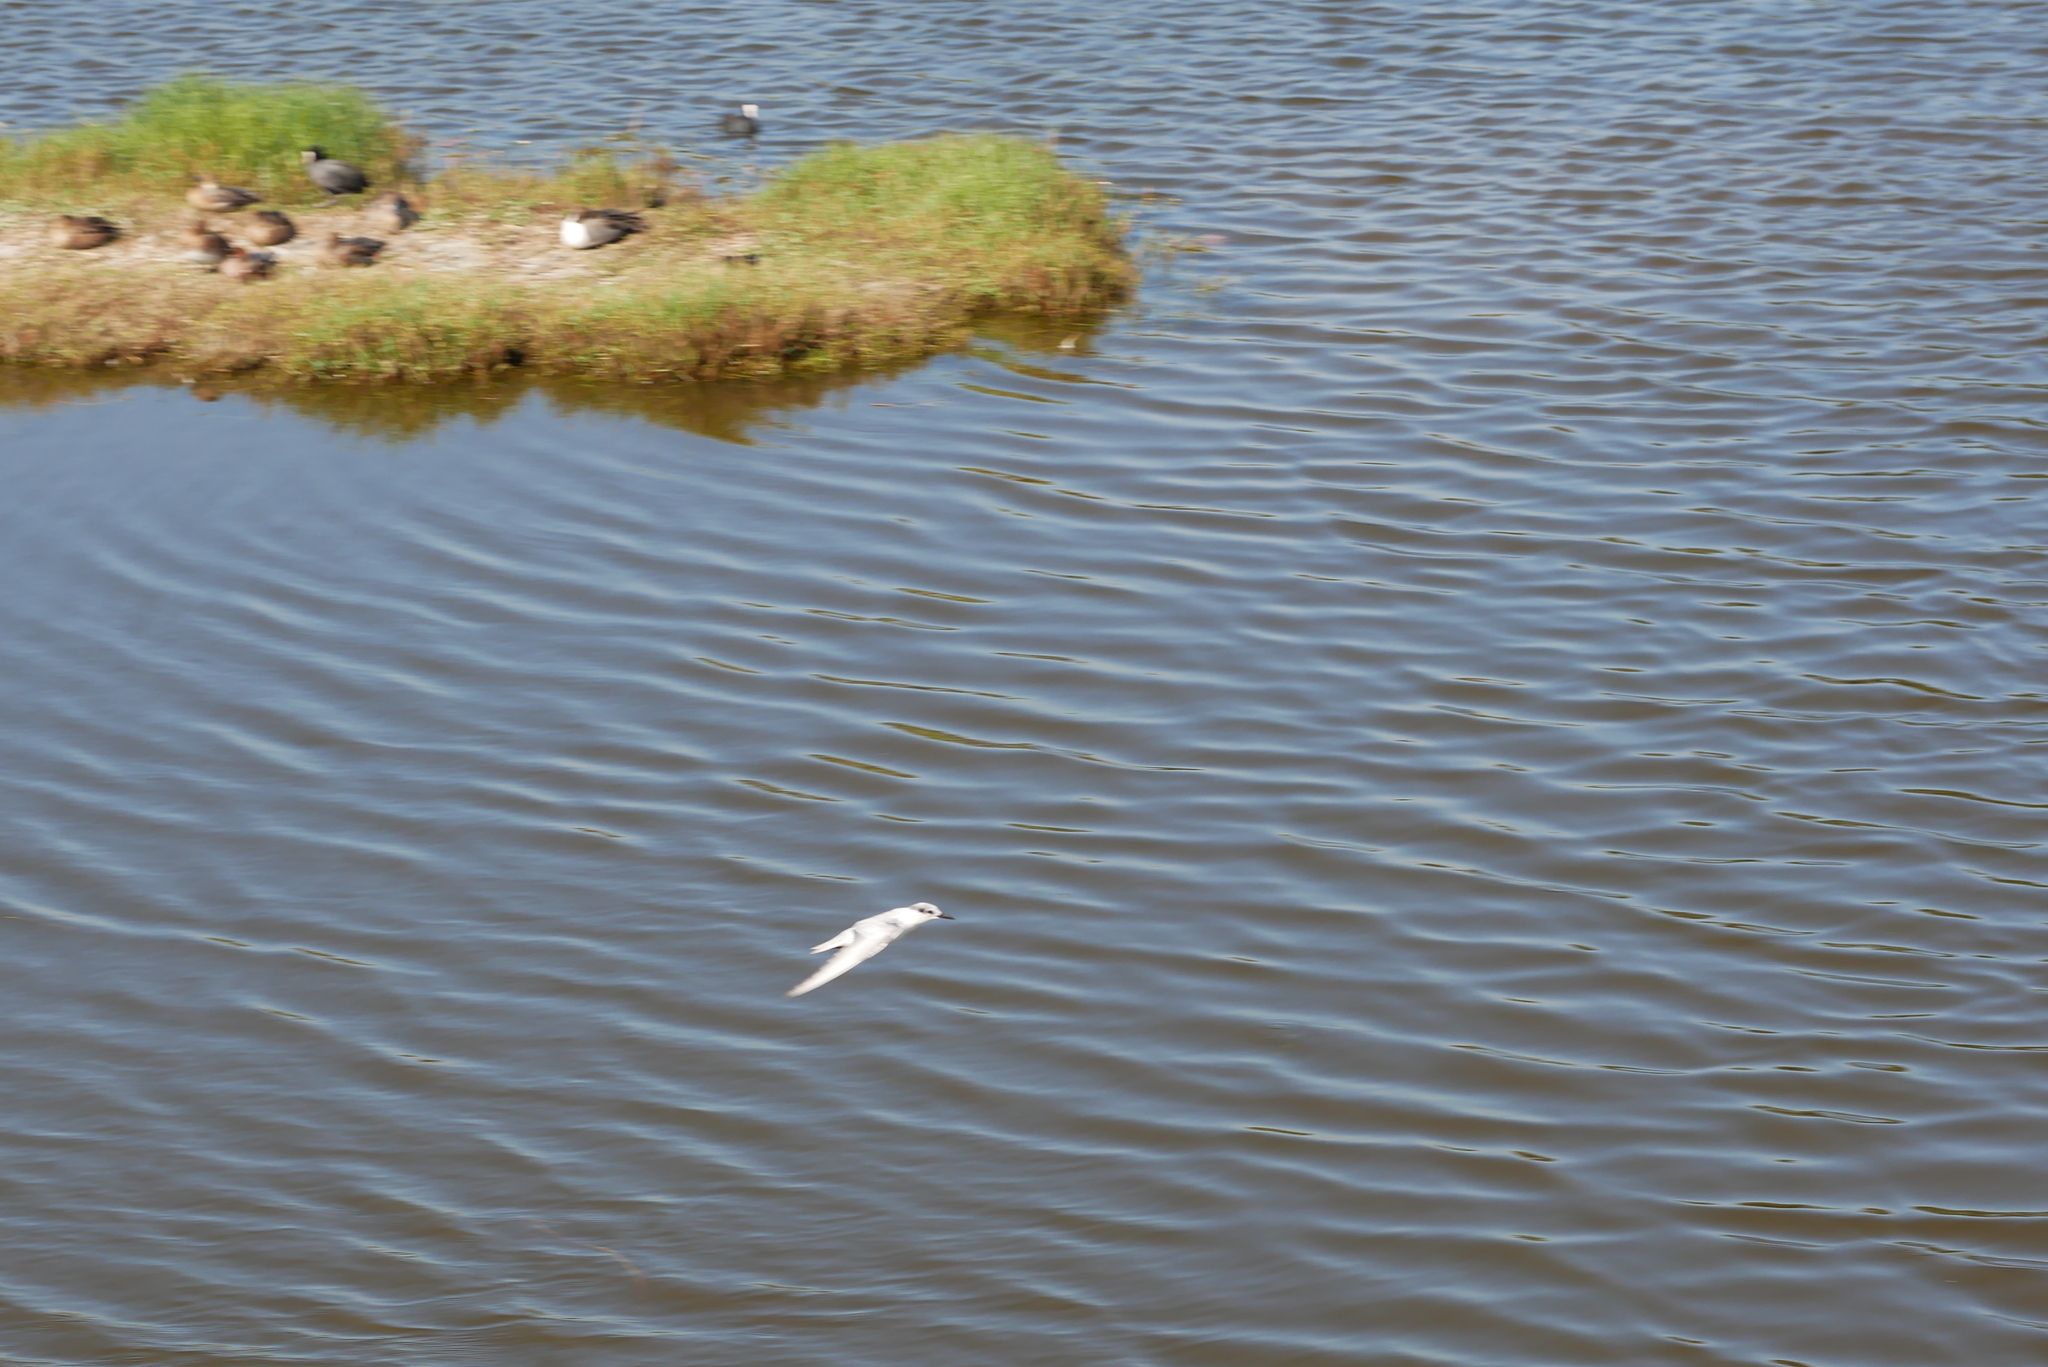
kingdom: Animalia
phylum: Chordata
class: Aves
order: Charadriiformes
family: Laridae
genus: Chlidonias
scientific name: Chlidonias hybrida
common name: Whiskered tern
